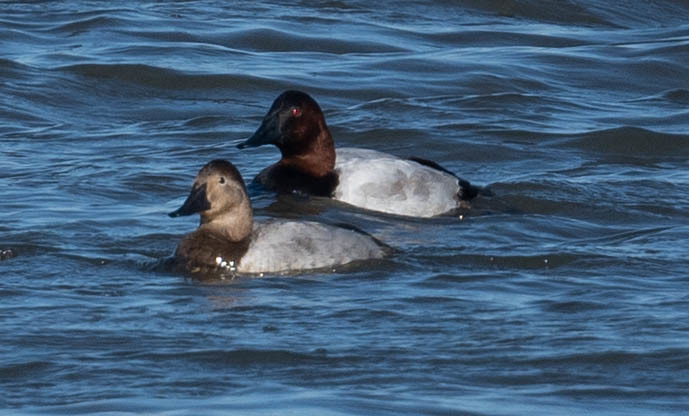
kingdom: Animalia
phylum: Chordata
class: Aves
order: Anseriformes
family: Anatidae
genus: Aythya
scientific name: Aythya valisineria
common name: Canvasback
